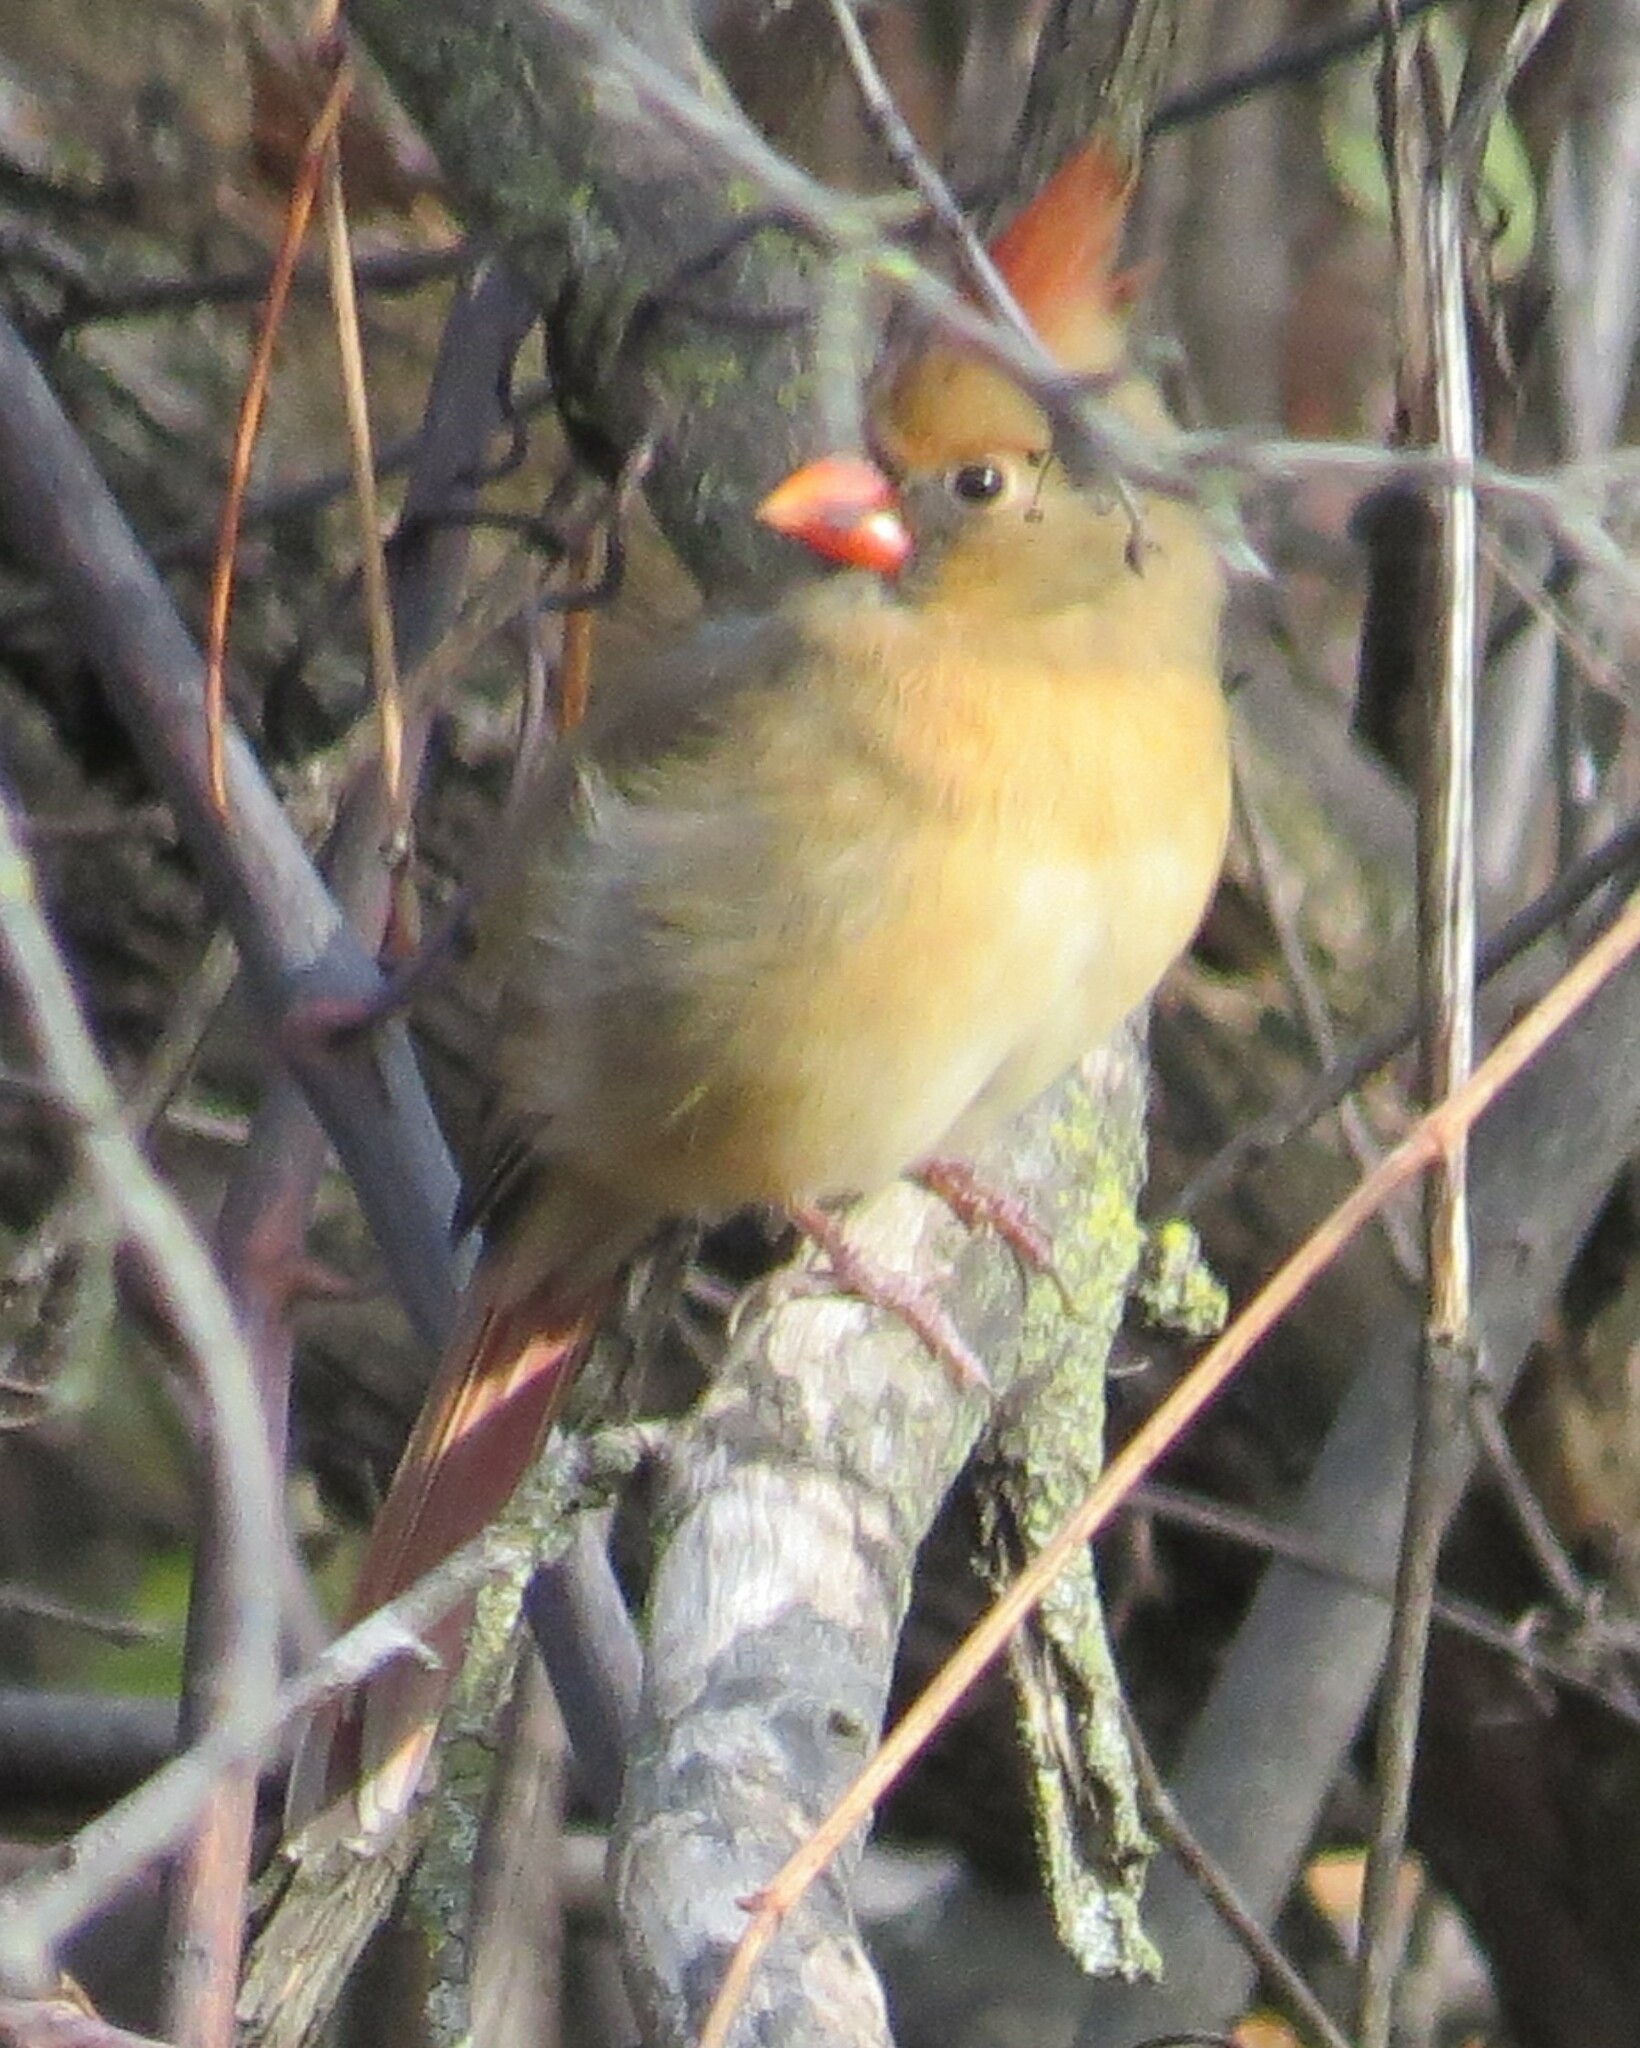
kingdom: Animalia
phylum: Chordata
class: Aves
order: Passeriformes
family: Cardinalidae
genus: Cardinalis
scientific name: Cardinalis cardinalis
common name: Northern cardinal
